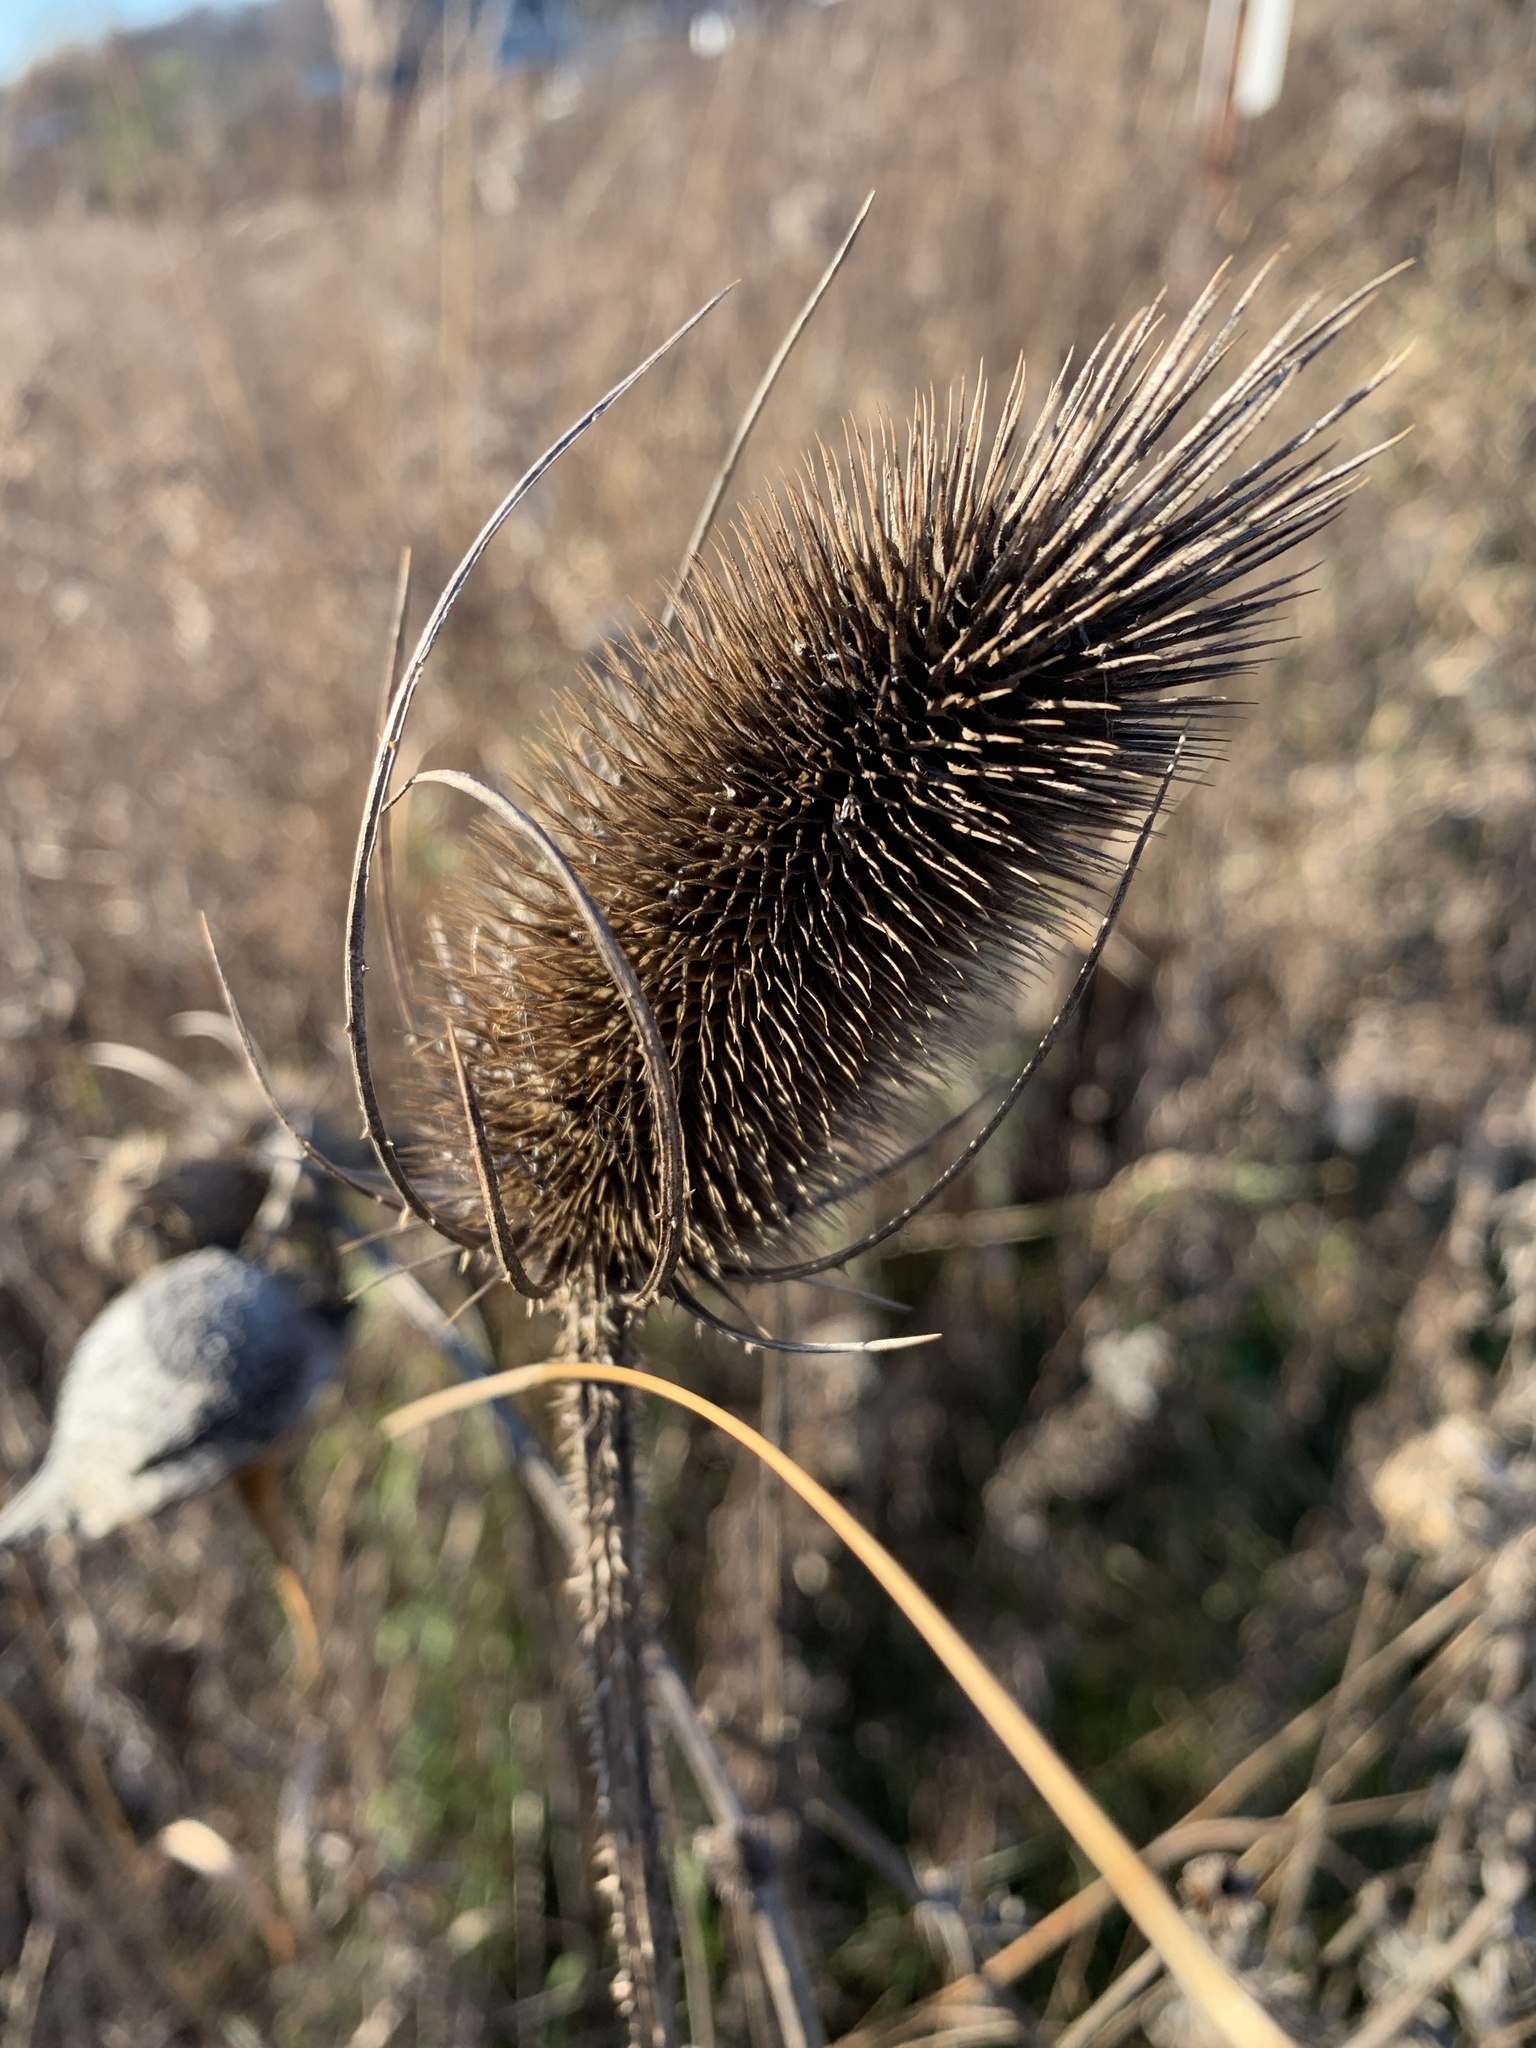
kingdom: Plantae
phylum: Tracheophyta
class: Magnoliopsida
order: Dipsacales
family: Caprifoliaceae
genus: Dipsacus
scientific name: Dipsacus fullonum
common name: Teasel
